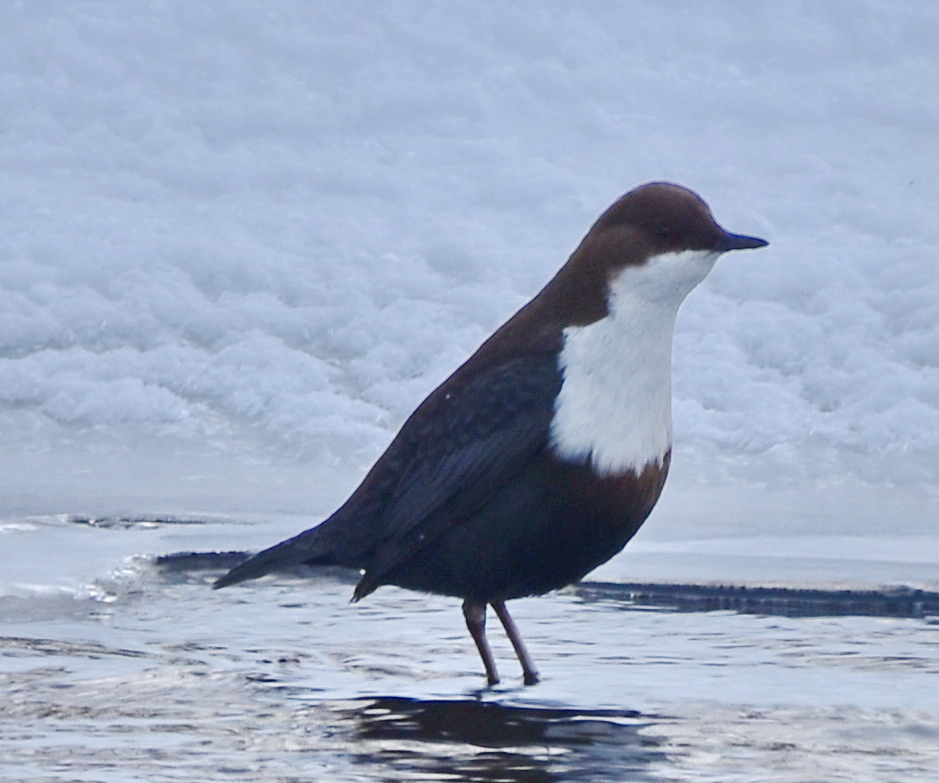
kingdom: Animalia
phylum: Chordata
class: Aves
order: Passeriformes
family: Cinclidae
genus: Cinclus
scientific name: Cinclus cinclus
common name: White-throated dipper
